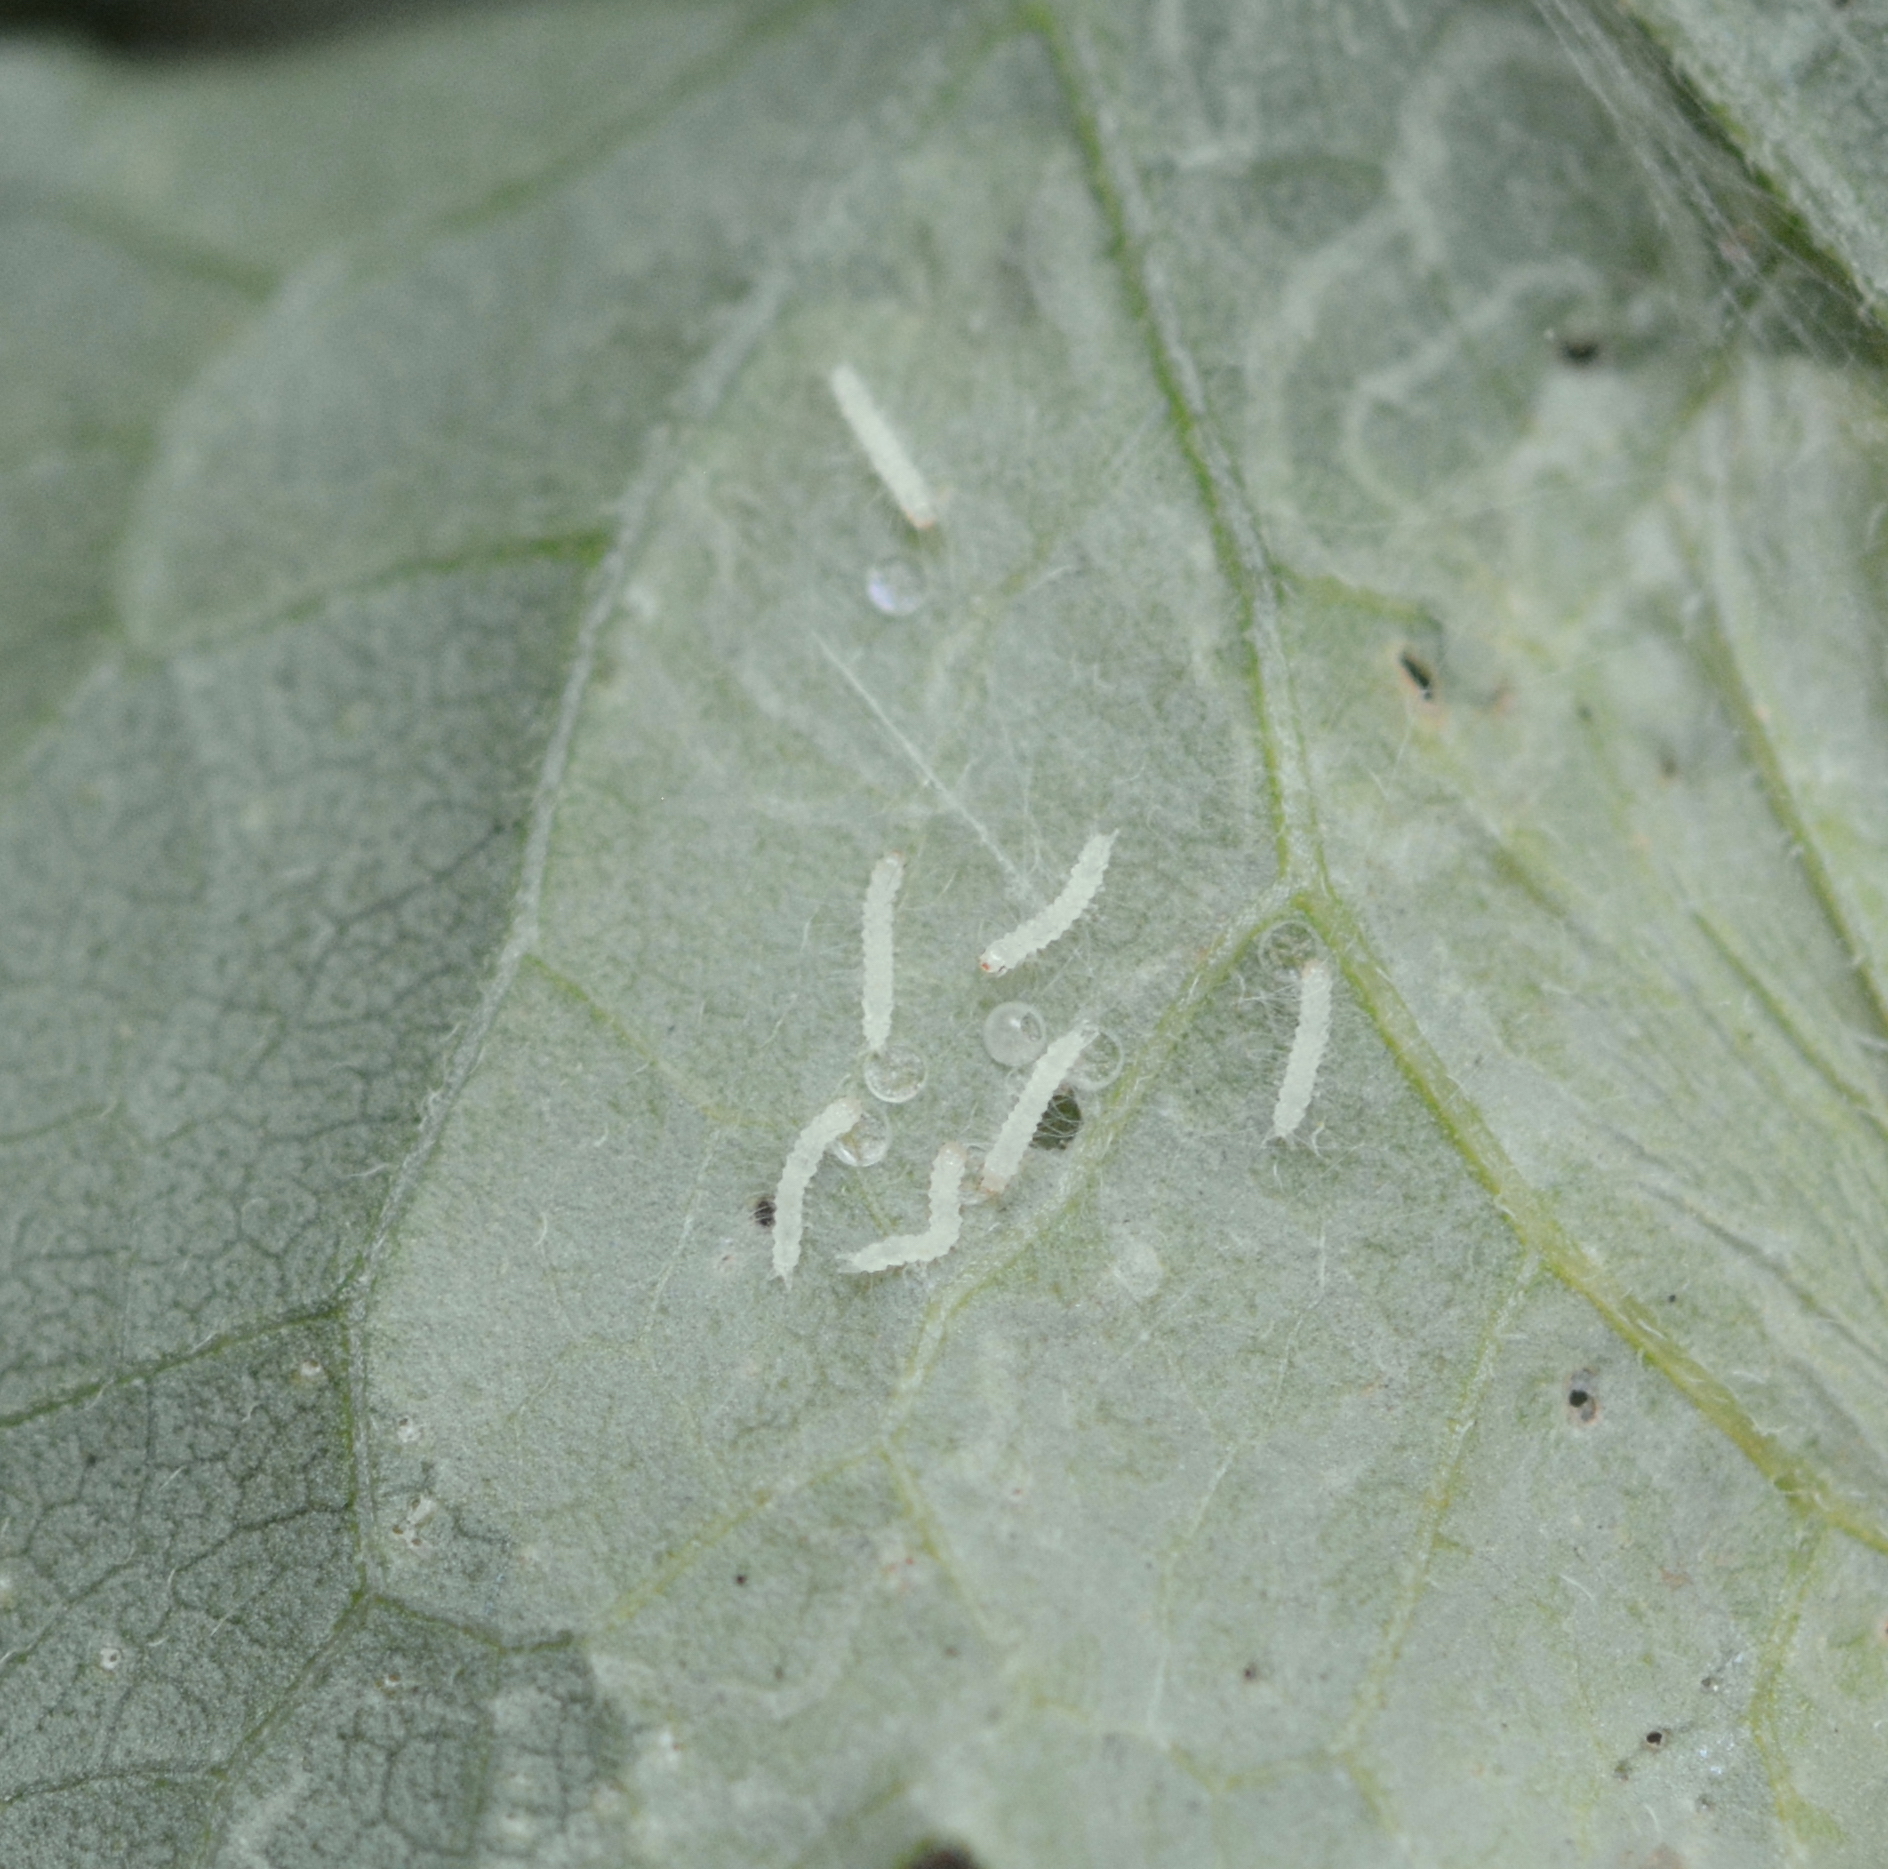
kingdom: Animalia
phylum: Arthropoda
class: Insecta
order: Lepidoptera
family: Erebidae
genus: Cosmosoma
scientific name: Cosmosoma myrodora
